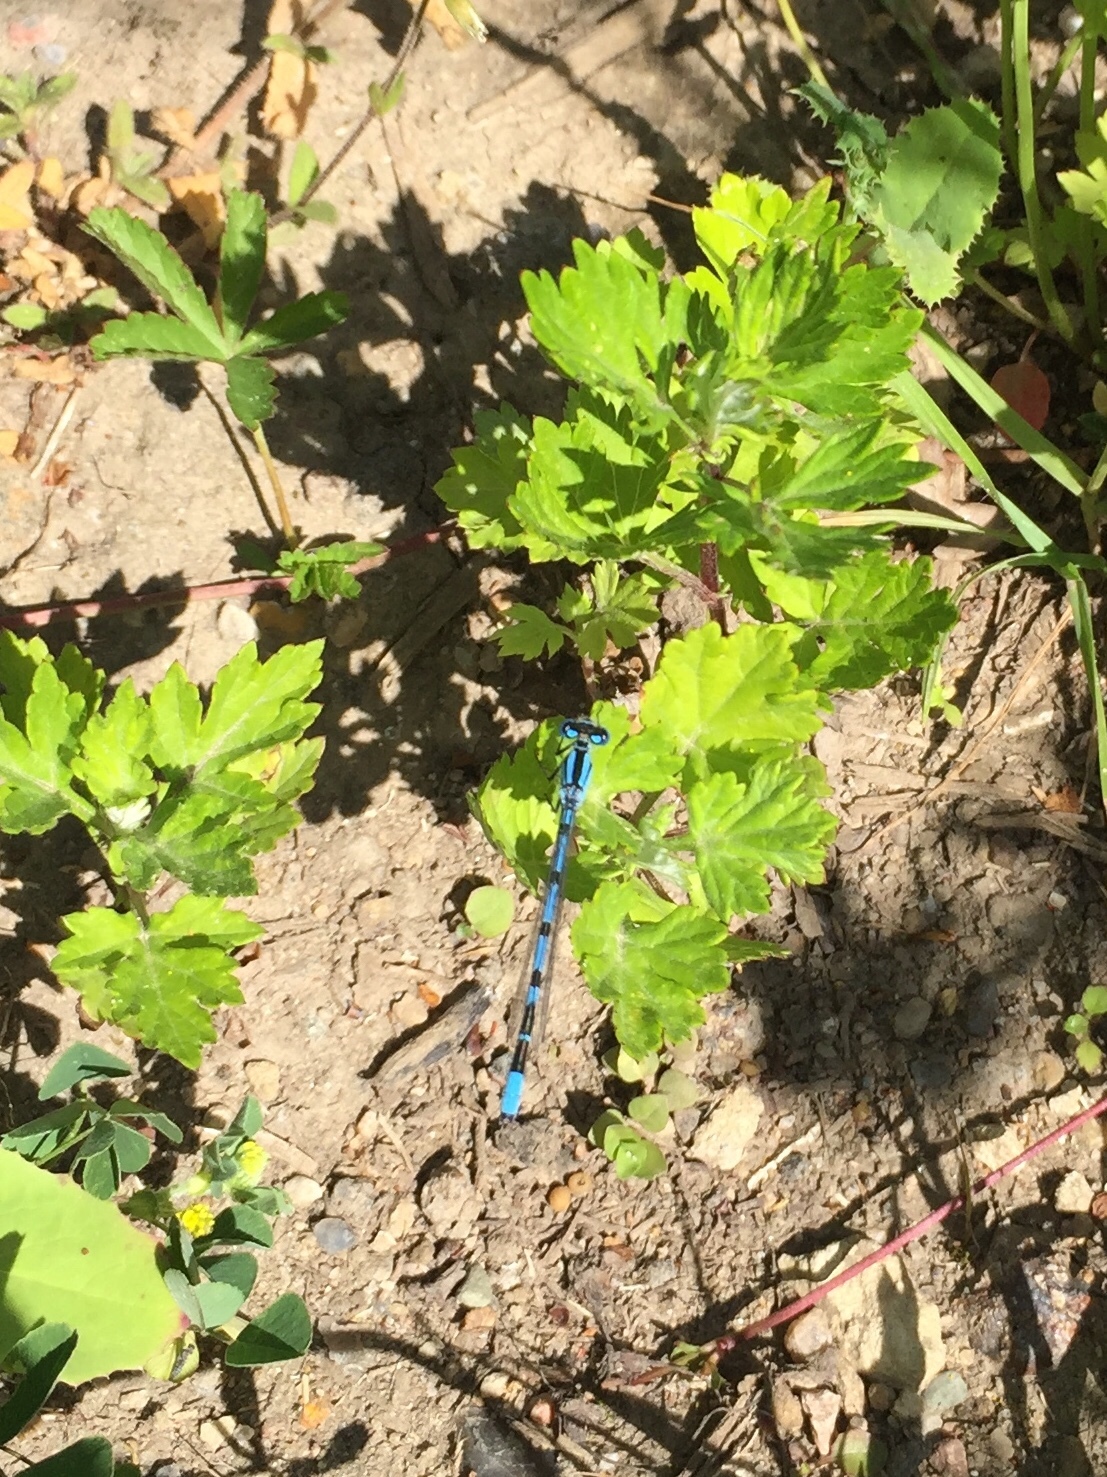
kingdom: Animalia
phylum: Arthropoda
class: Insecta
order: Odonata
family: Coenagrionidae
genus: Enallagma
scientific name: Enallagma cyathigerum
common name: Common blue damselfly
